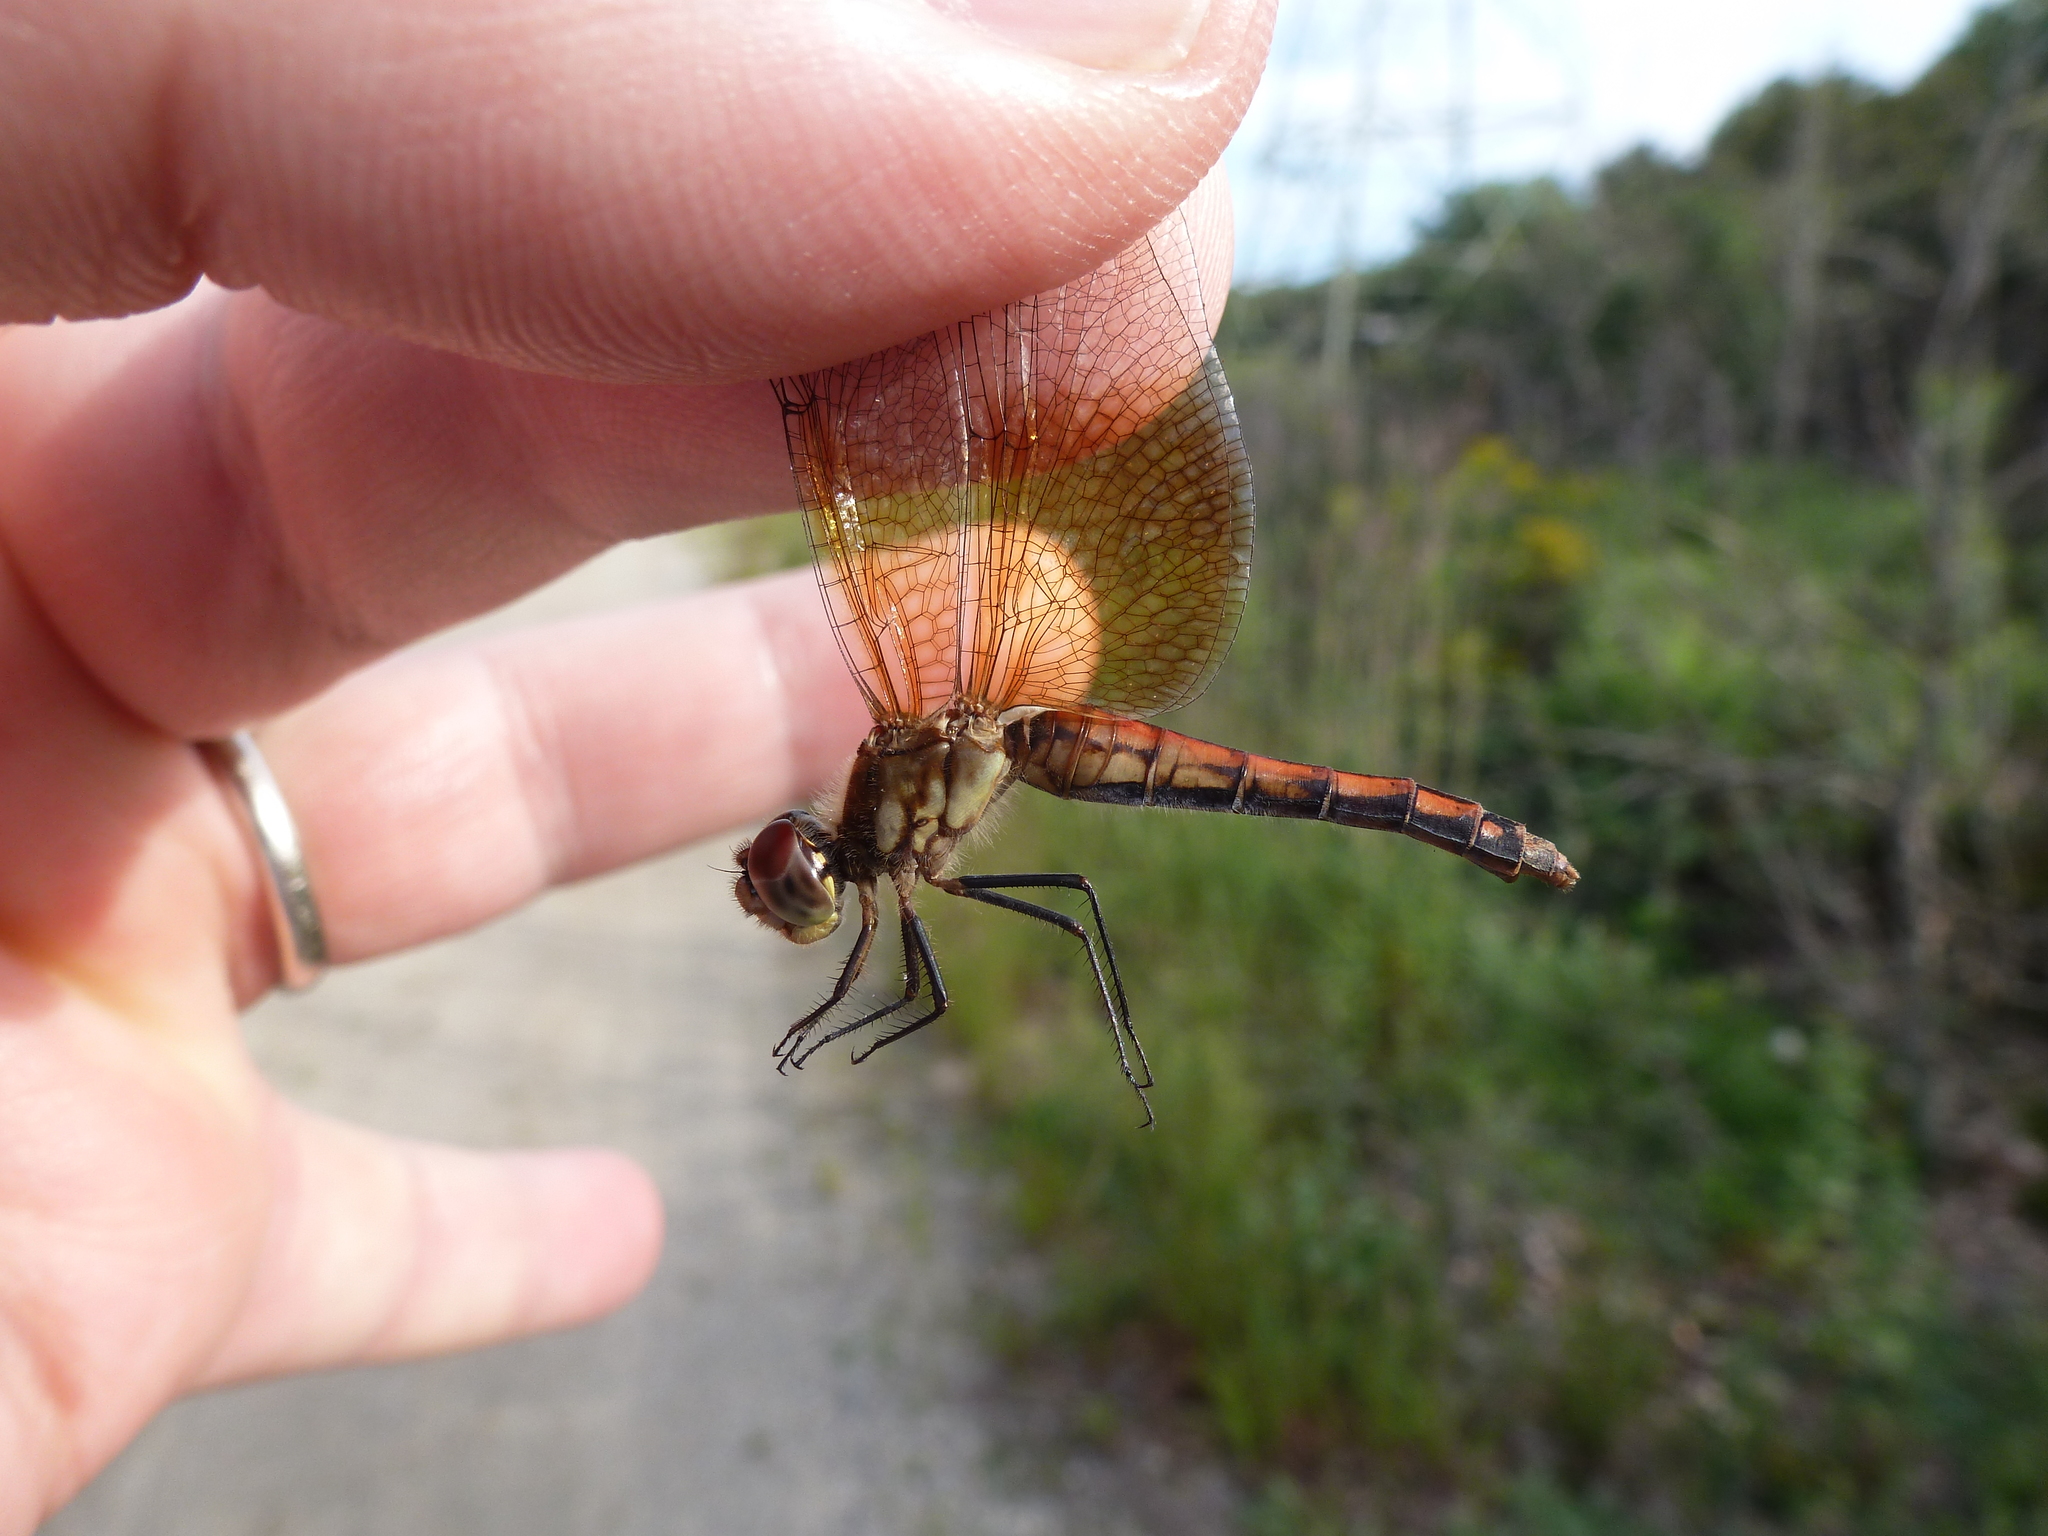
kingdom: Animalia
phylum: Arthropoda
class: Insecta
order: Odonata
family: Libellulidae
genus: Sympetrum
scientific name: Sympetrum semicinctum
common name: Band-winged meadowhawk
